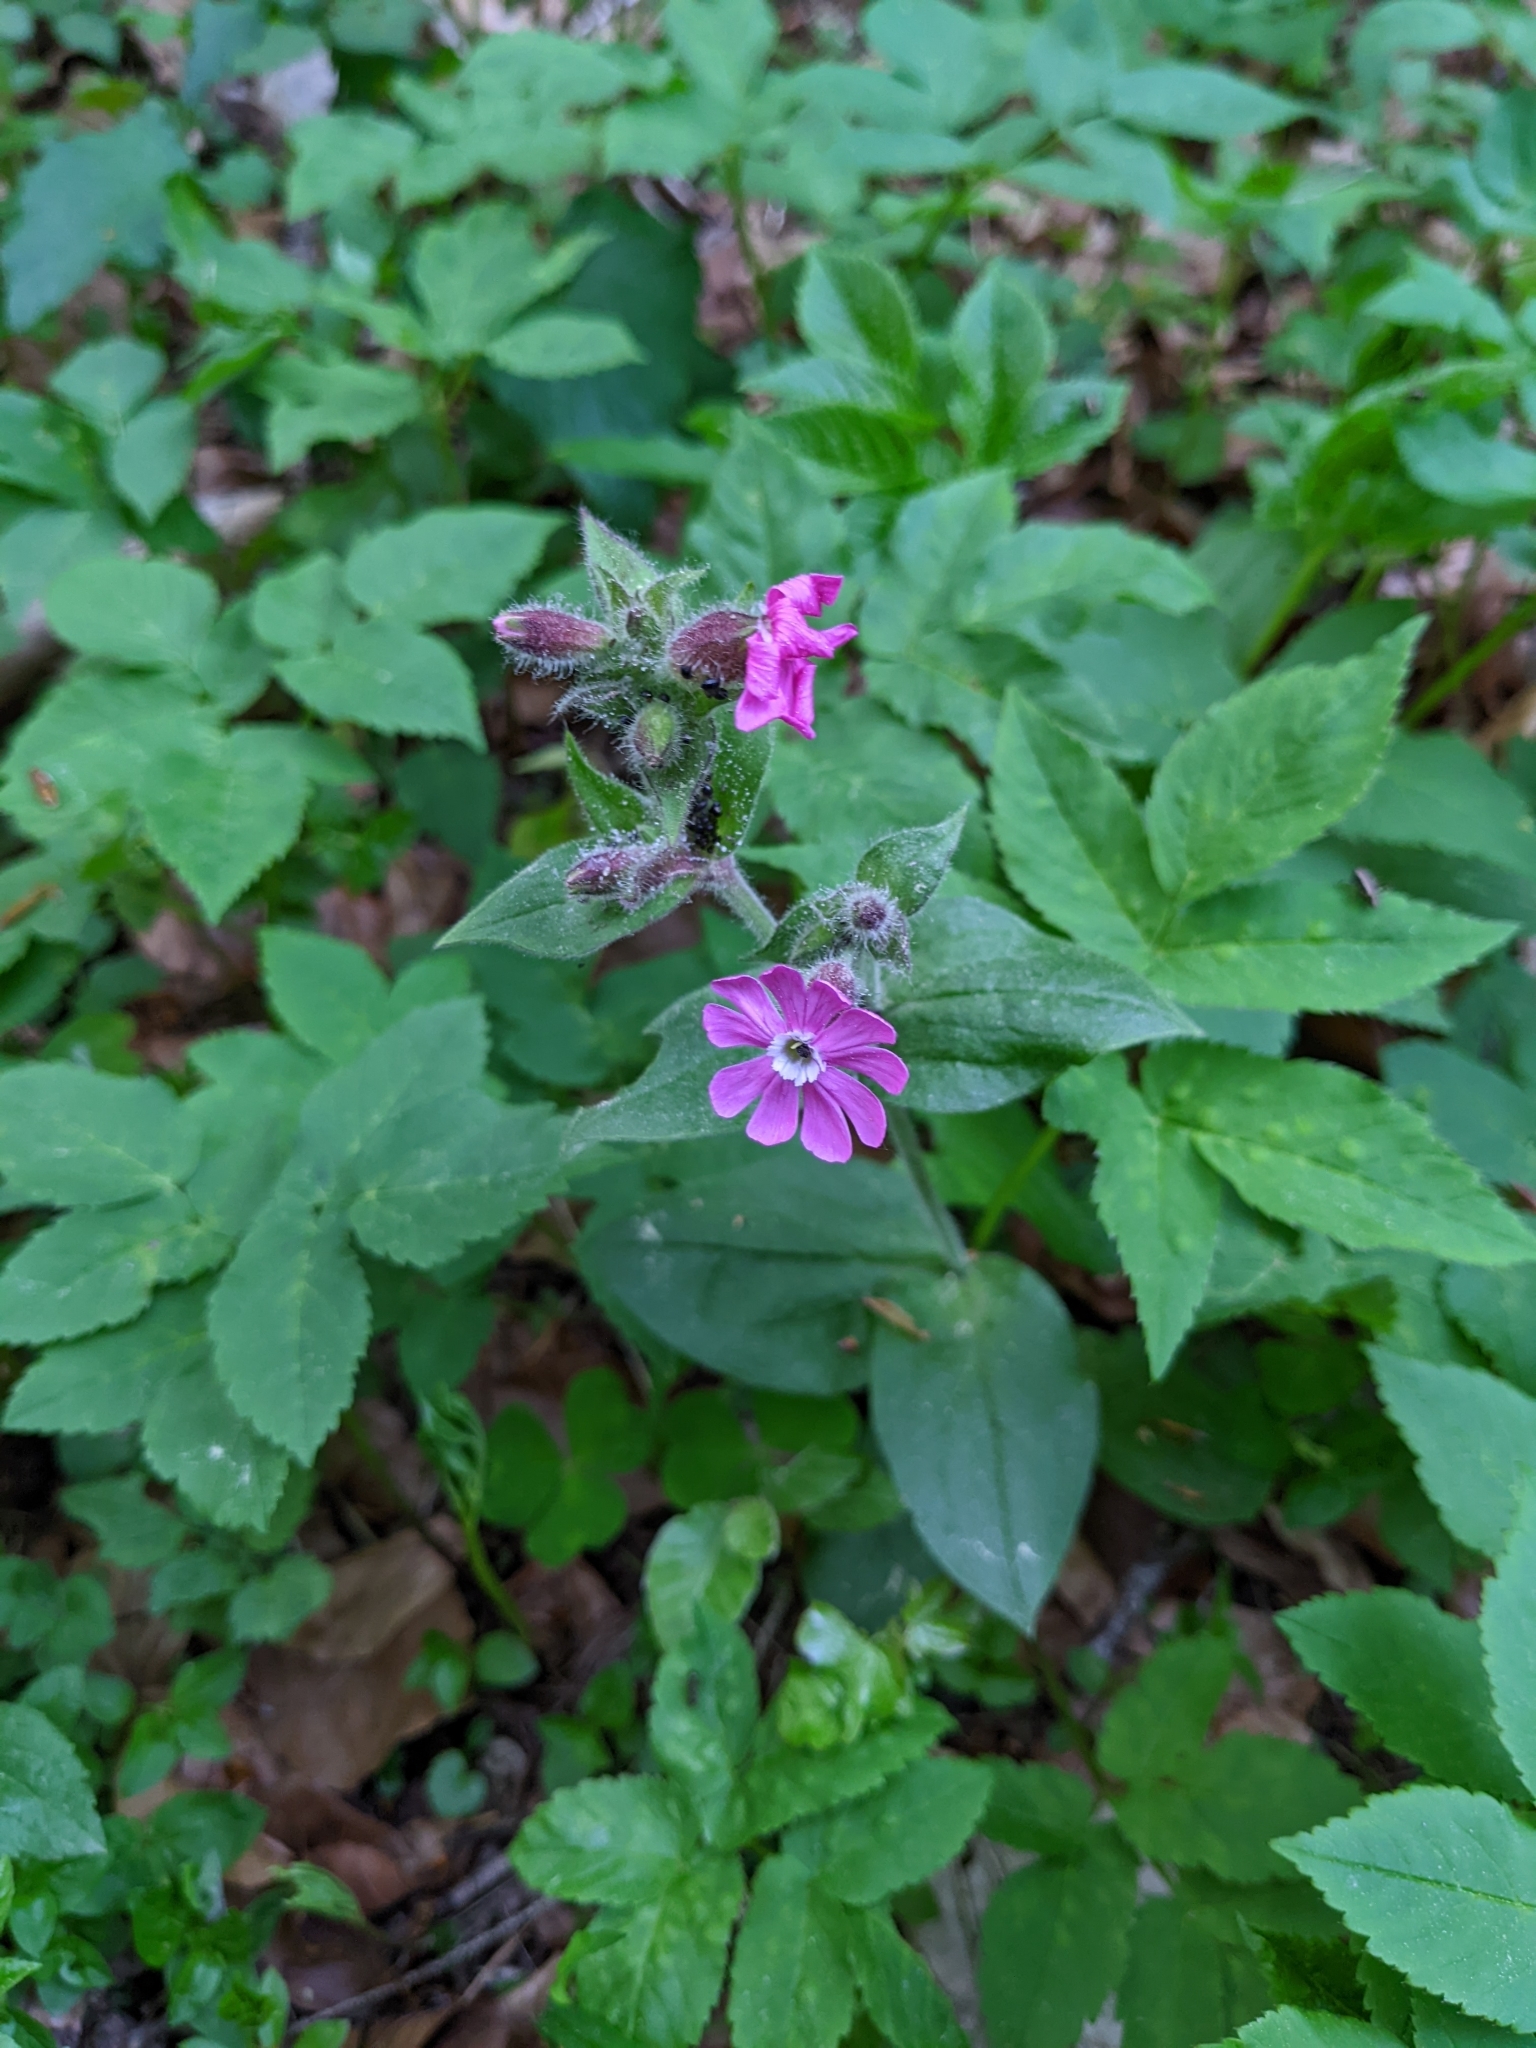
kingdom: Plantae
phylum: Tracheophyta
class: Magnoliopsida
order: Caryophyllales
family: Caryophyllaceae
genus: Silene
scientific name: Silene dioica
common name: Red campion
